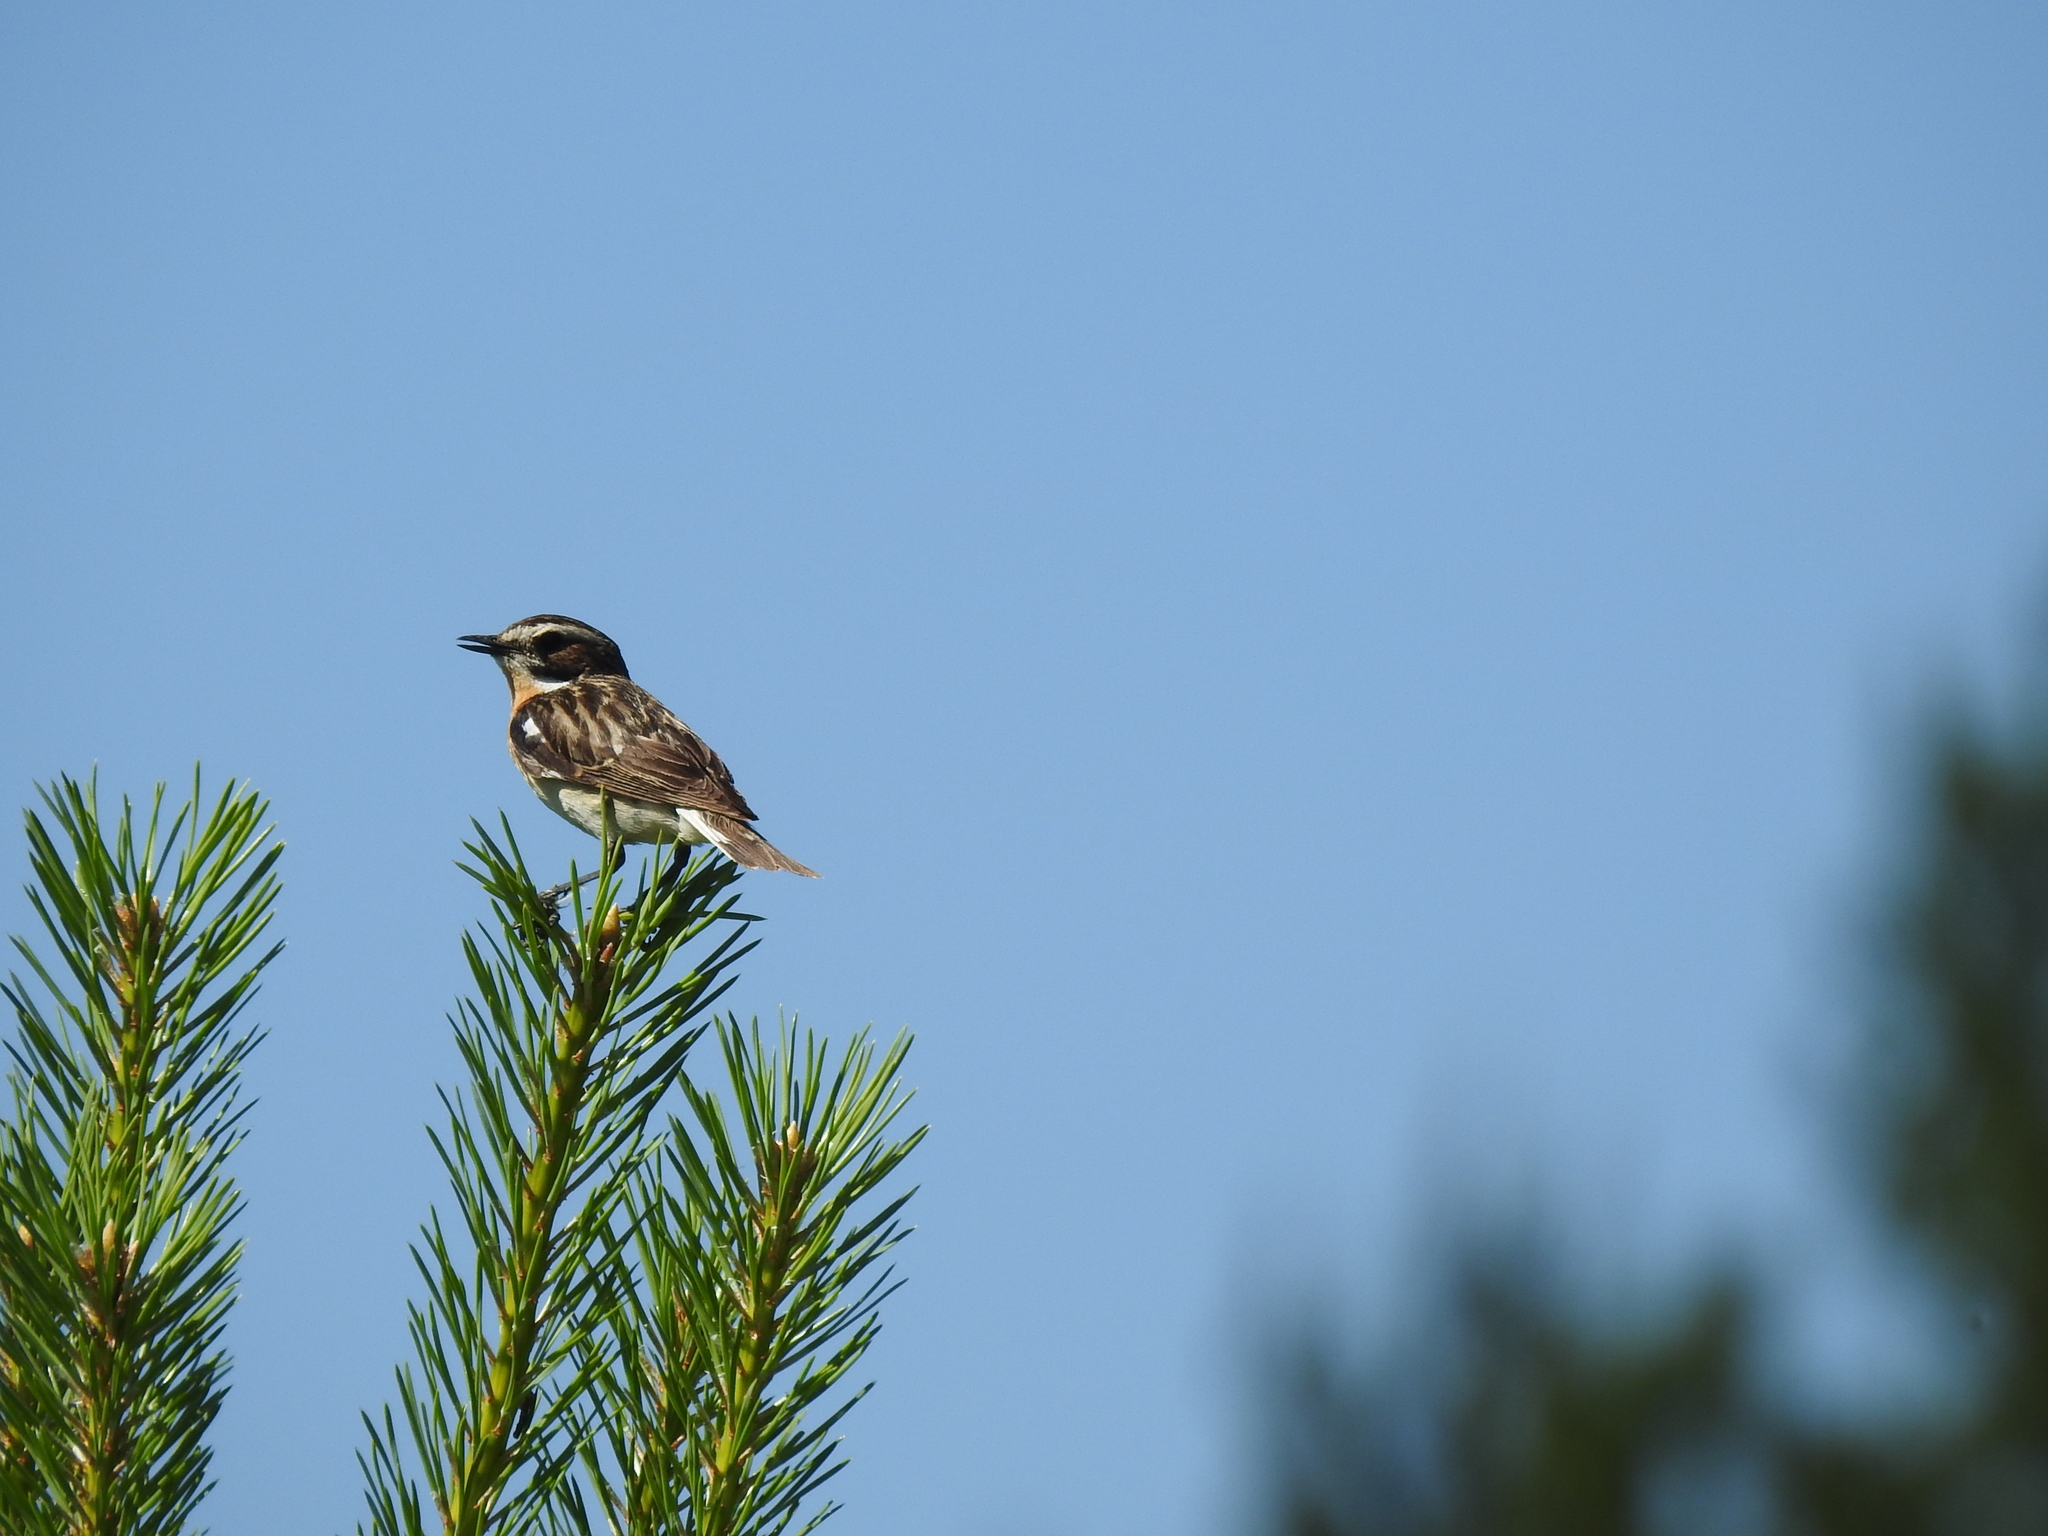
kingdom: Animalia
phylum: Chordata
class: Aves
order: Passeriformes
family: Muscicapidae
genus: Saxicola
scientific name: Saxicola rubetra
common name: Whinchat
